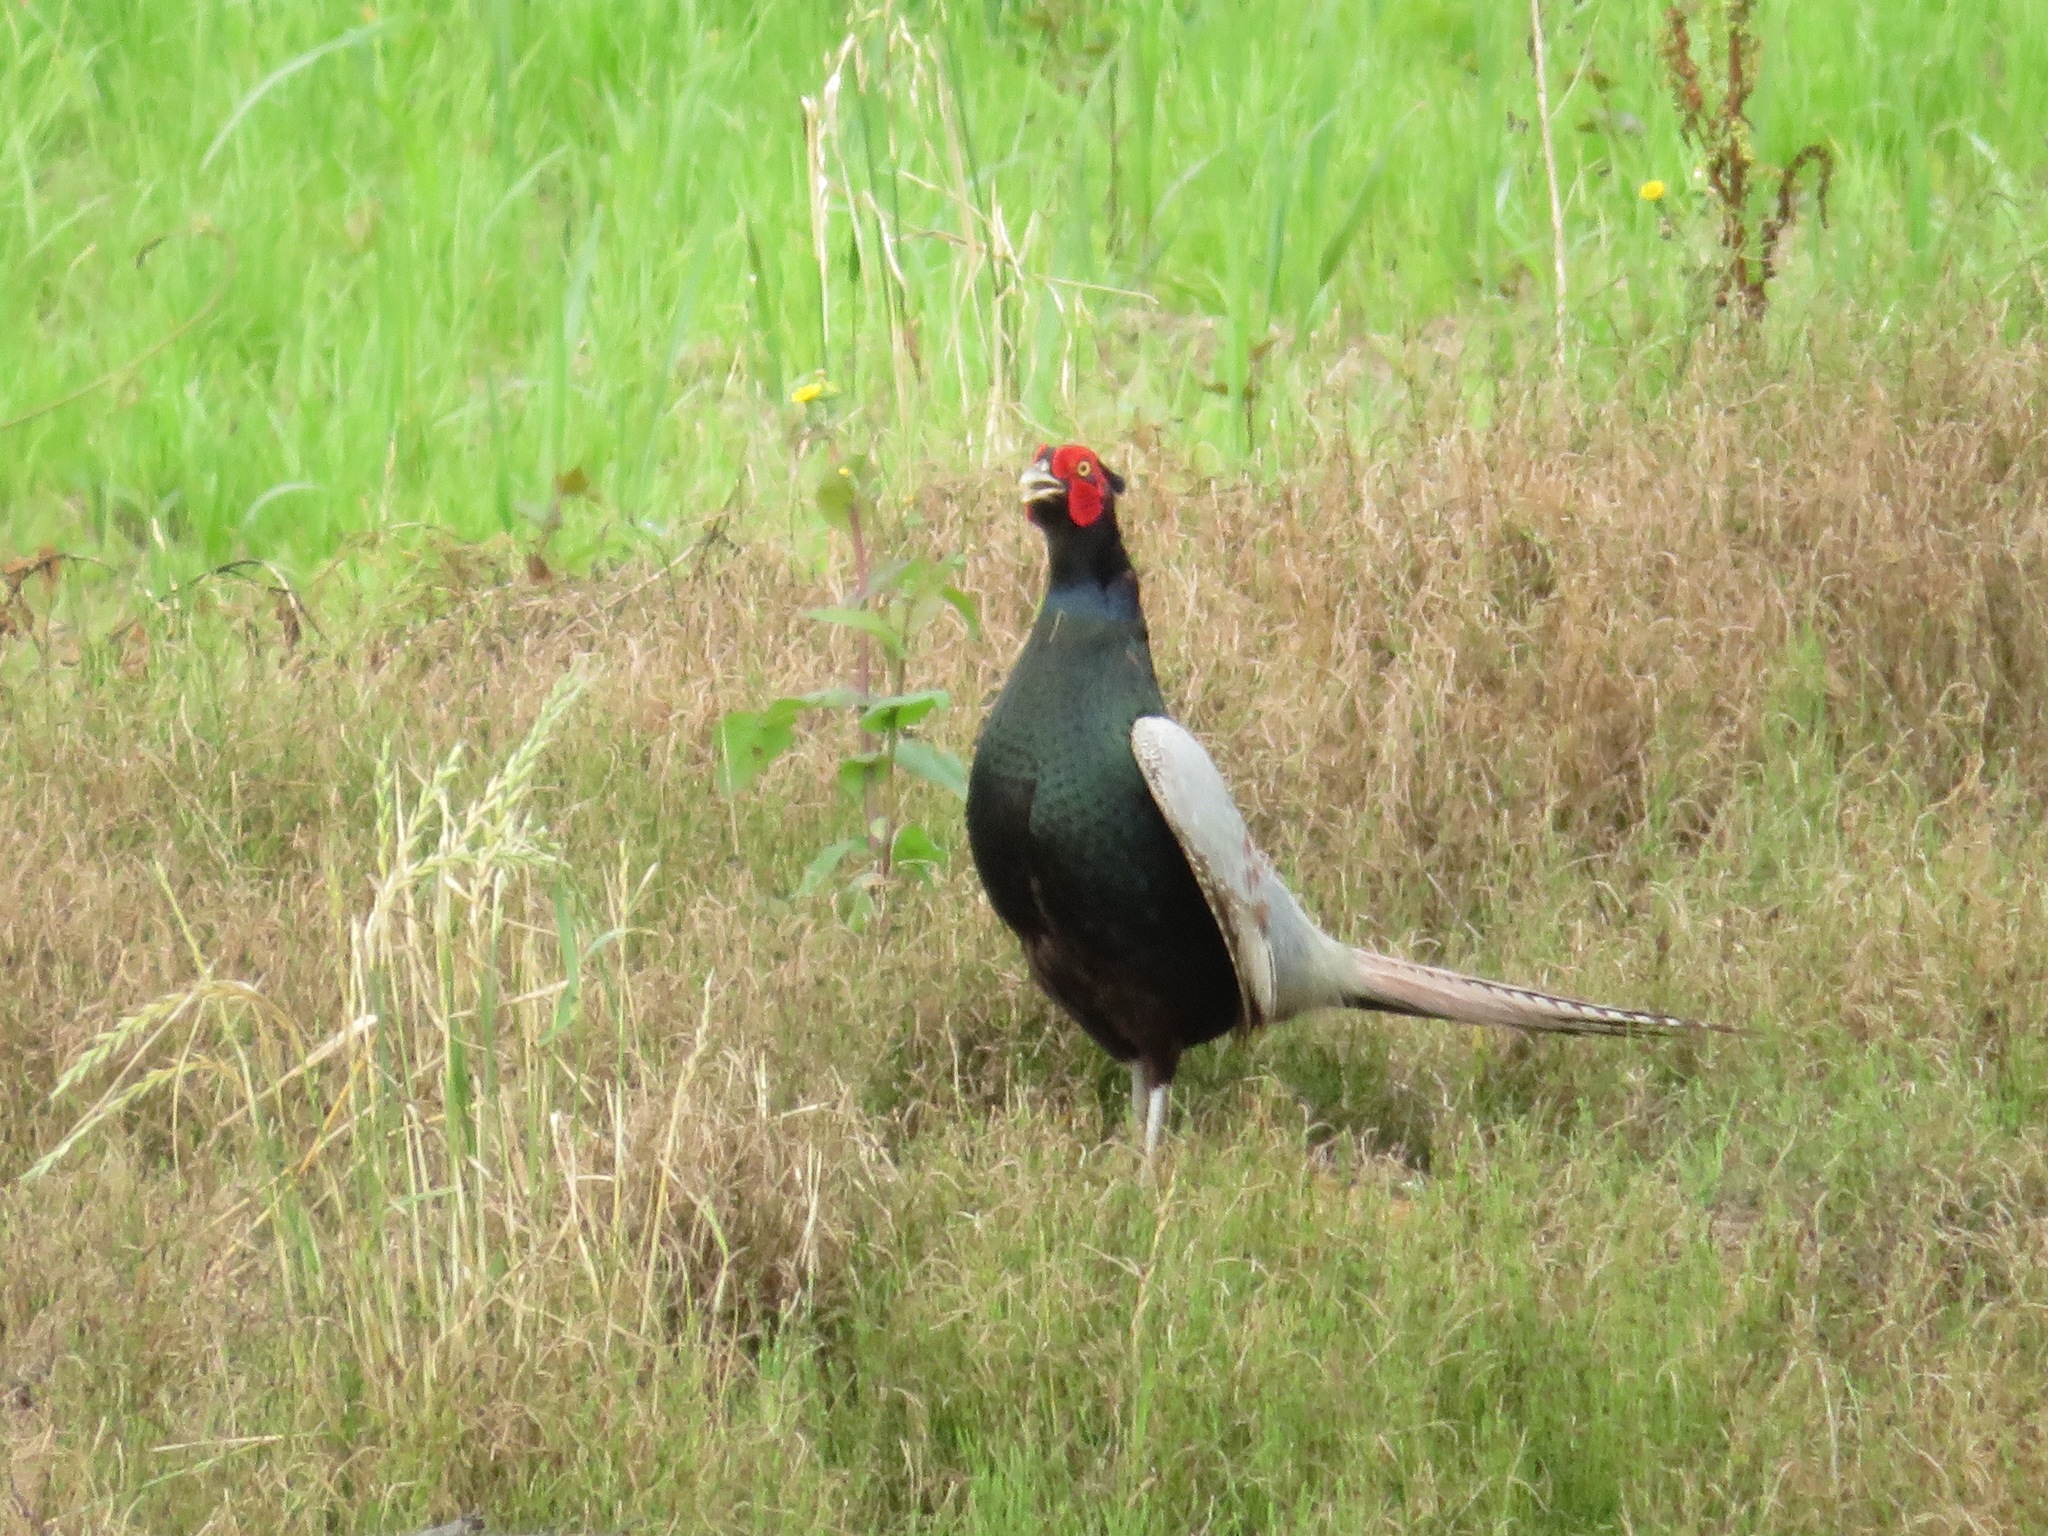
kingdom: Animalia
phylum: Chordata
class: Aves
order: Galliformes
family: Phasianidae
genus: Phasianus
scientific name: Phasianus versicolor
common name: Green pheasant
